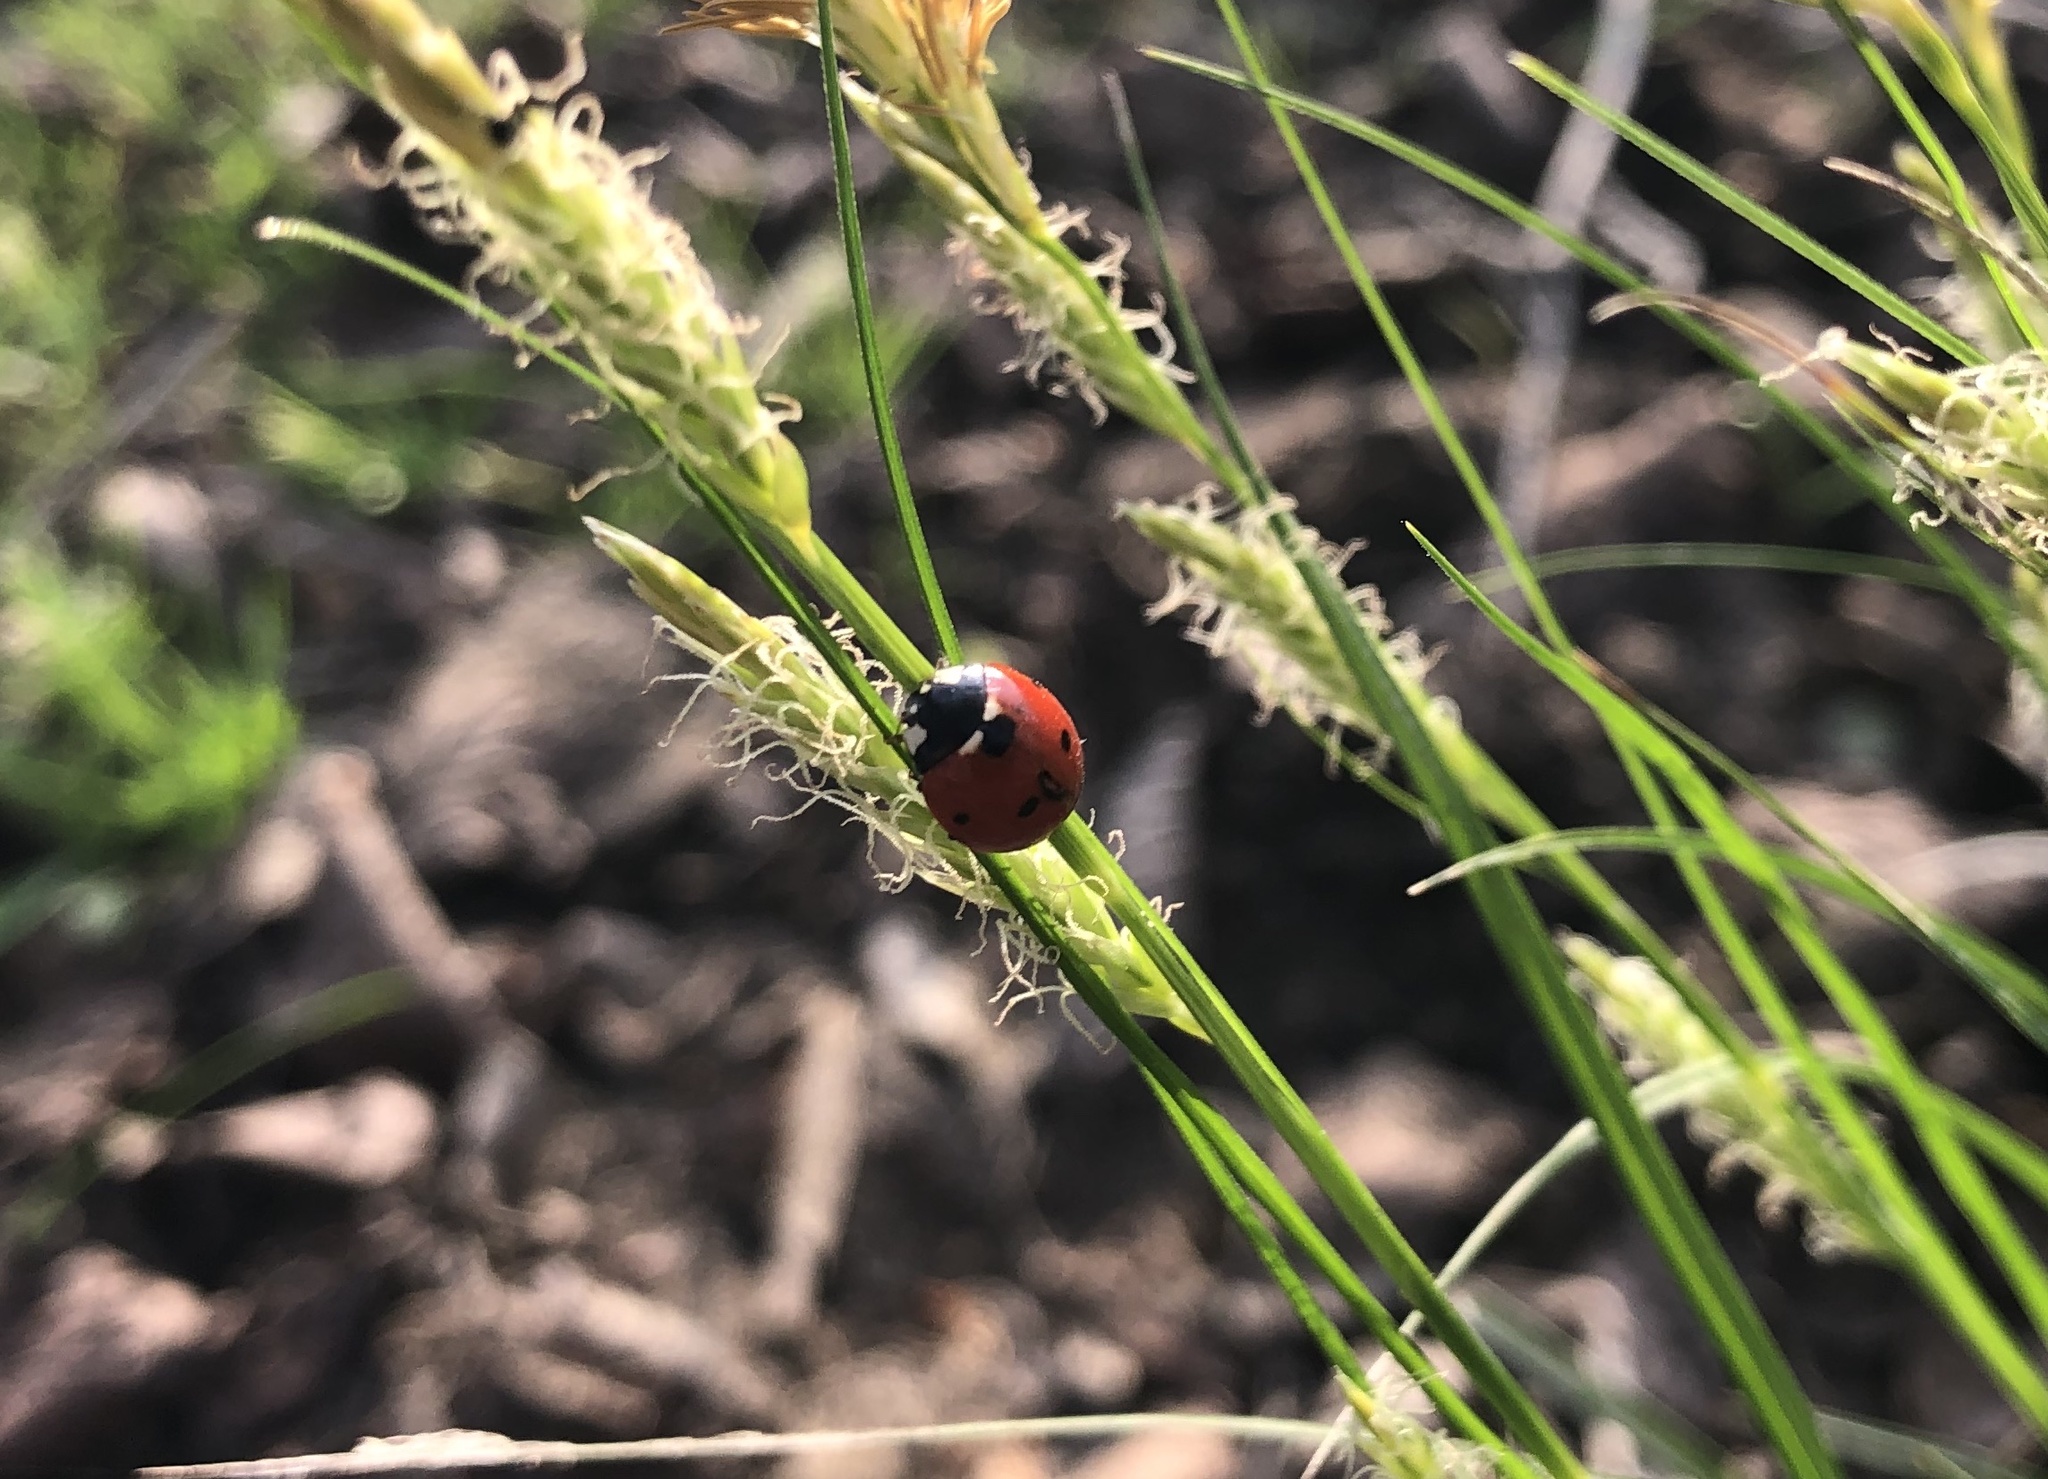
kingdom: Animalia
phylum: Arthropoda
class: Insecta
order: Coleoptera
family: Coccinellidae
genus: Coccinella
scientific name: Coccinella septempunctata
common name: Sevenspotted lady beetle
